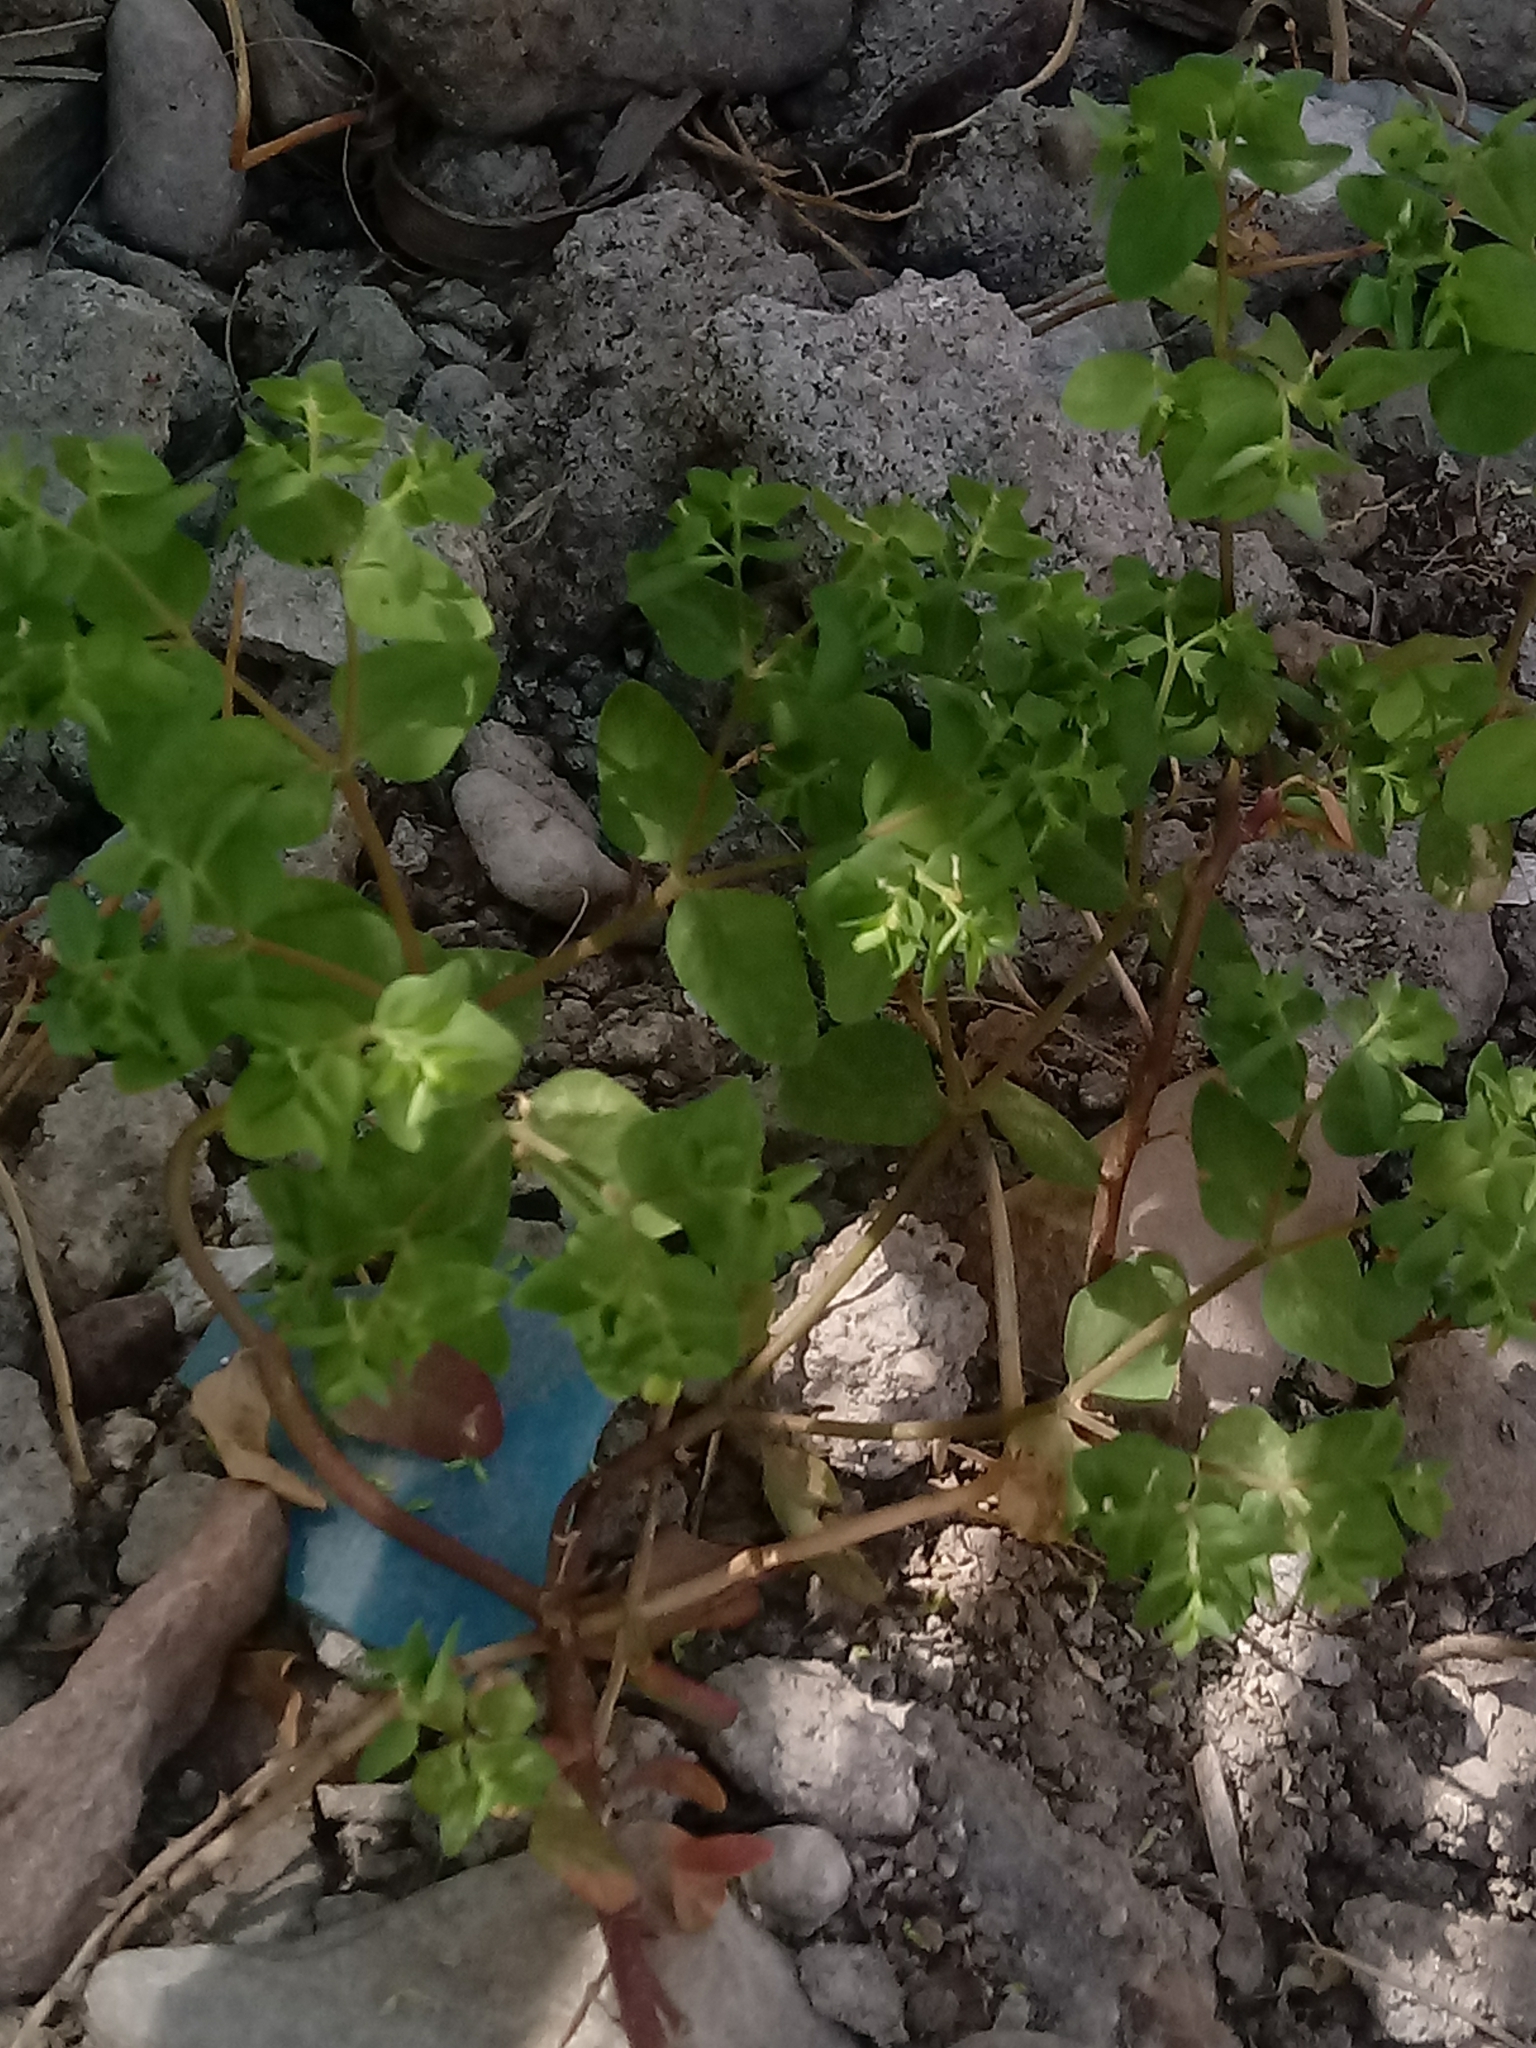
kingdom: Plantae
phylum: Tracheophyta
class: Magnoliopsida
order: Malpighiales
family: Euphorbiaceae
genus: Euphorbia
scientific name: Euphorbia peplus
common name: Petty spurge
